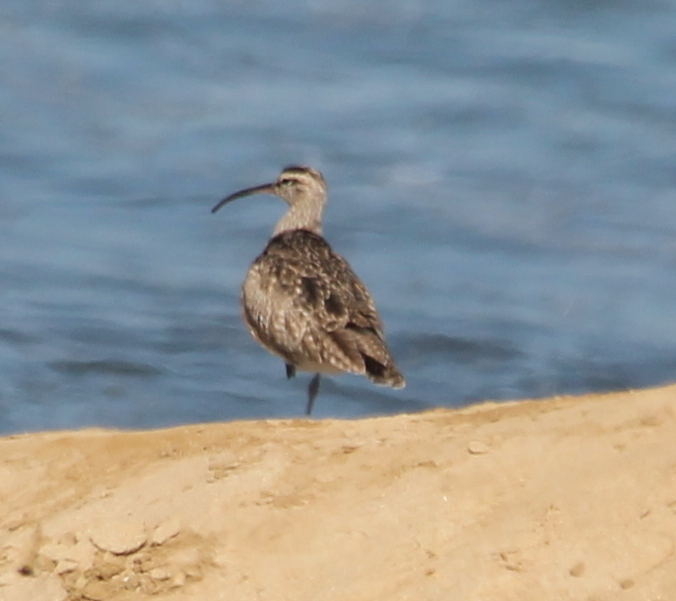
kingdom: Animalia
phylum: Chordata
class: Aves
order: Charadriiformes
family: Scolopacidae
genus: Numenius
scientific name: Numenius phaeopus
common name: Whimbrel
